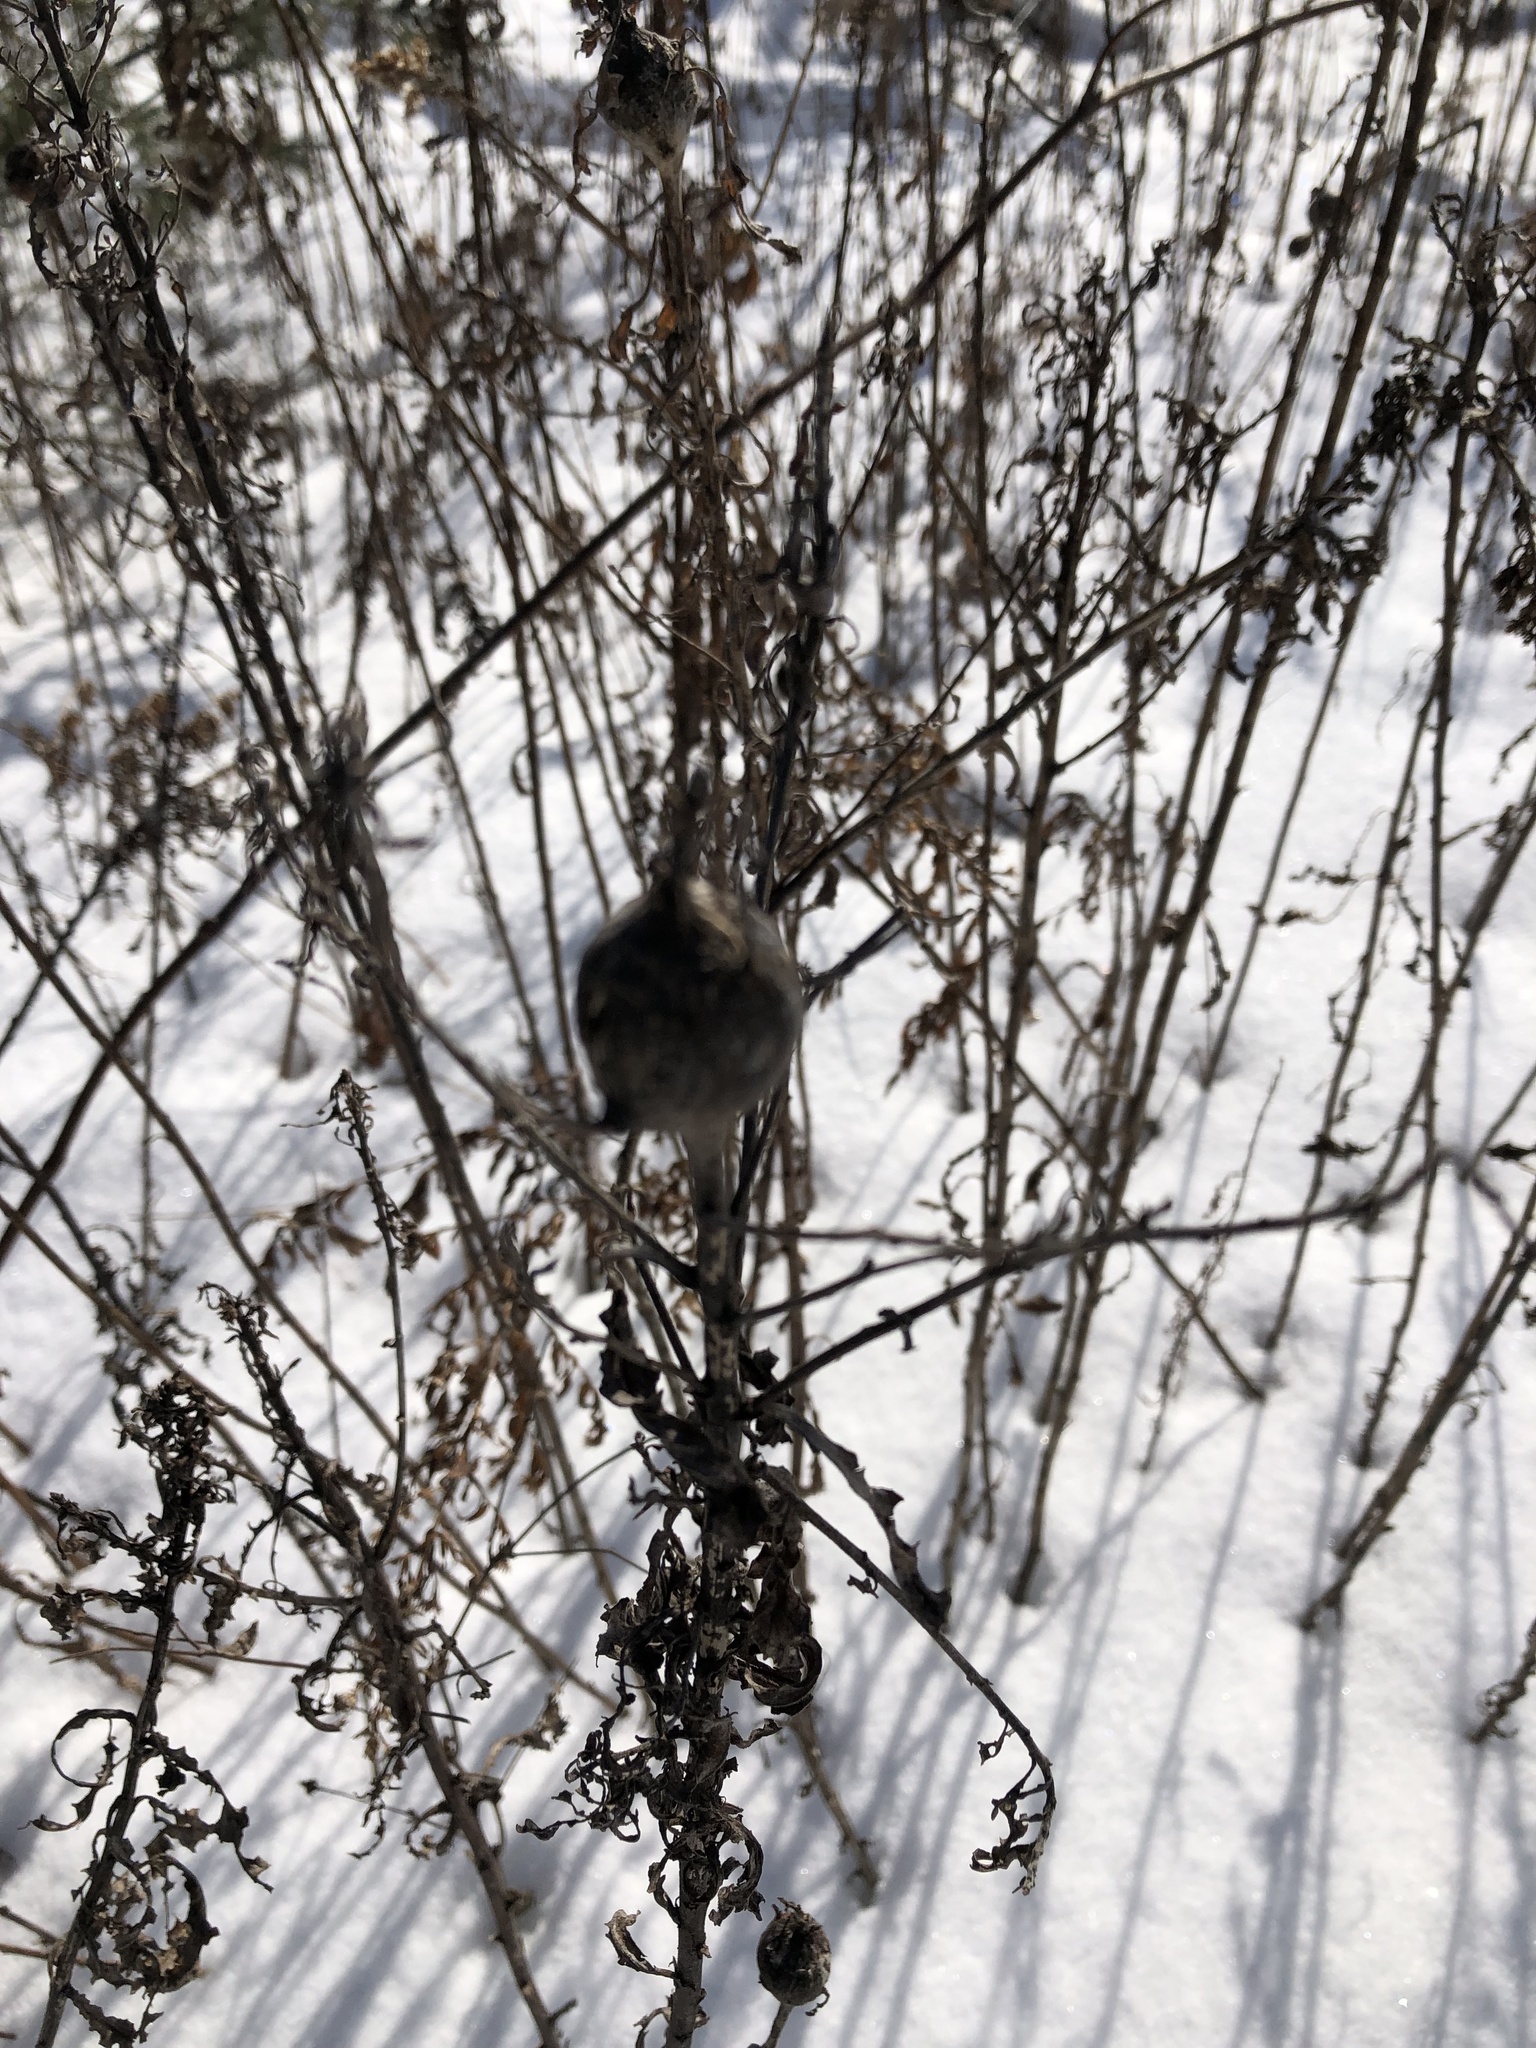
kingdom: Animalia
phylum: Arthropoda
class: Insecta
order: Diptera
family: Tephritidae
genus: Eurosta
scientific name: Eurosta solidaginis
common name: Goldenrod gall fly
